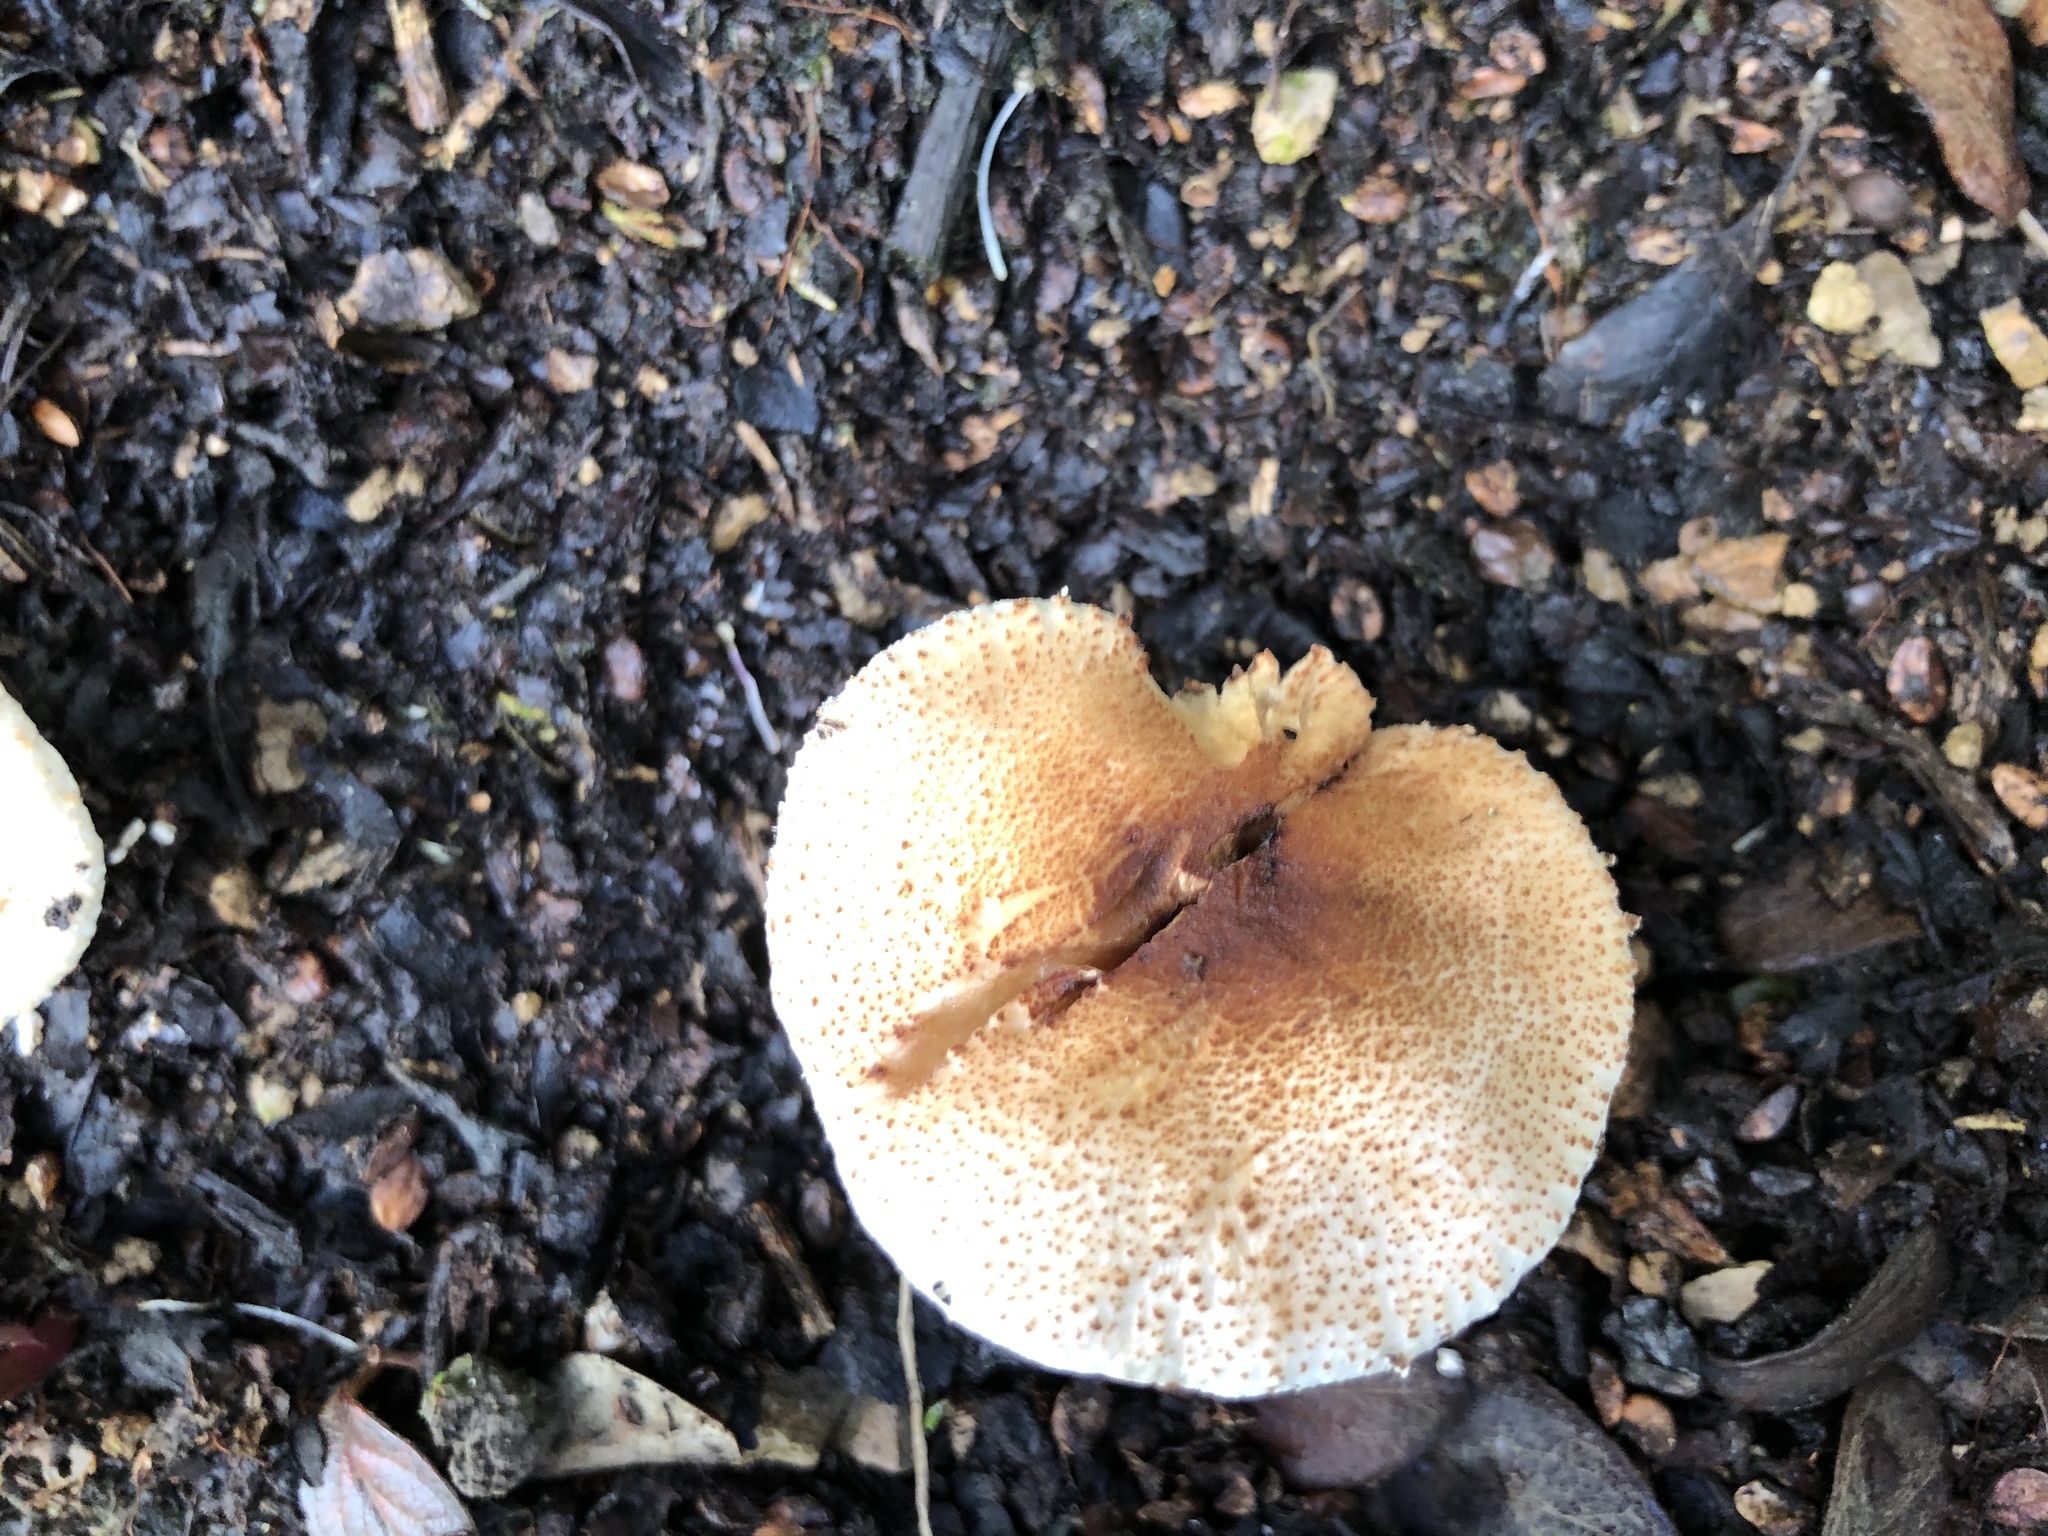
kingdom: Fungi
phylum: Basidiomycota
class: Agaricomycetes
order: Agaricales
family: Agaricaceae
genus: Lepiota
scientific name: Lepiota spheniscispora
